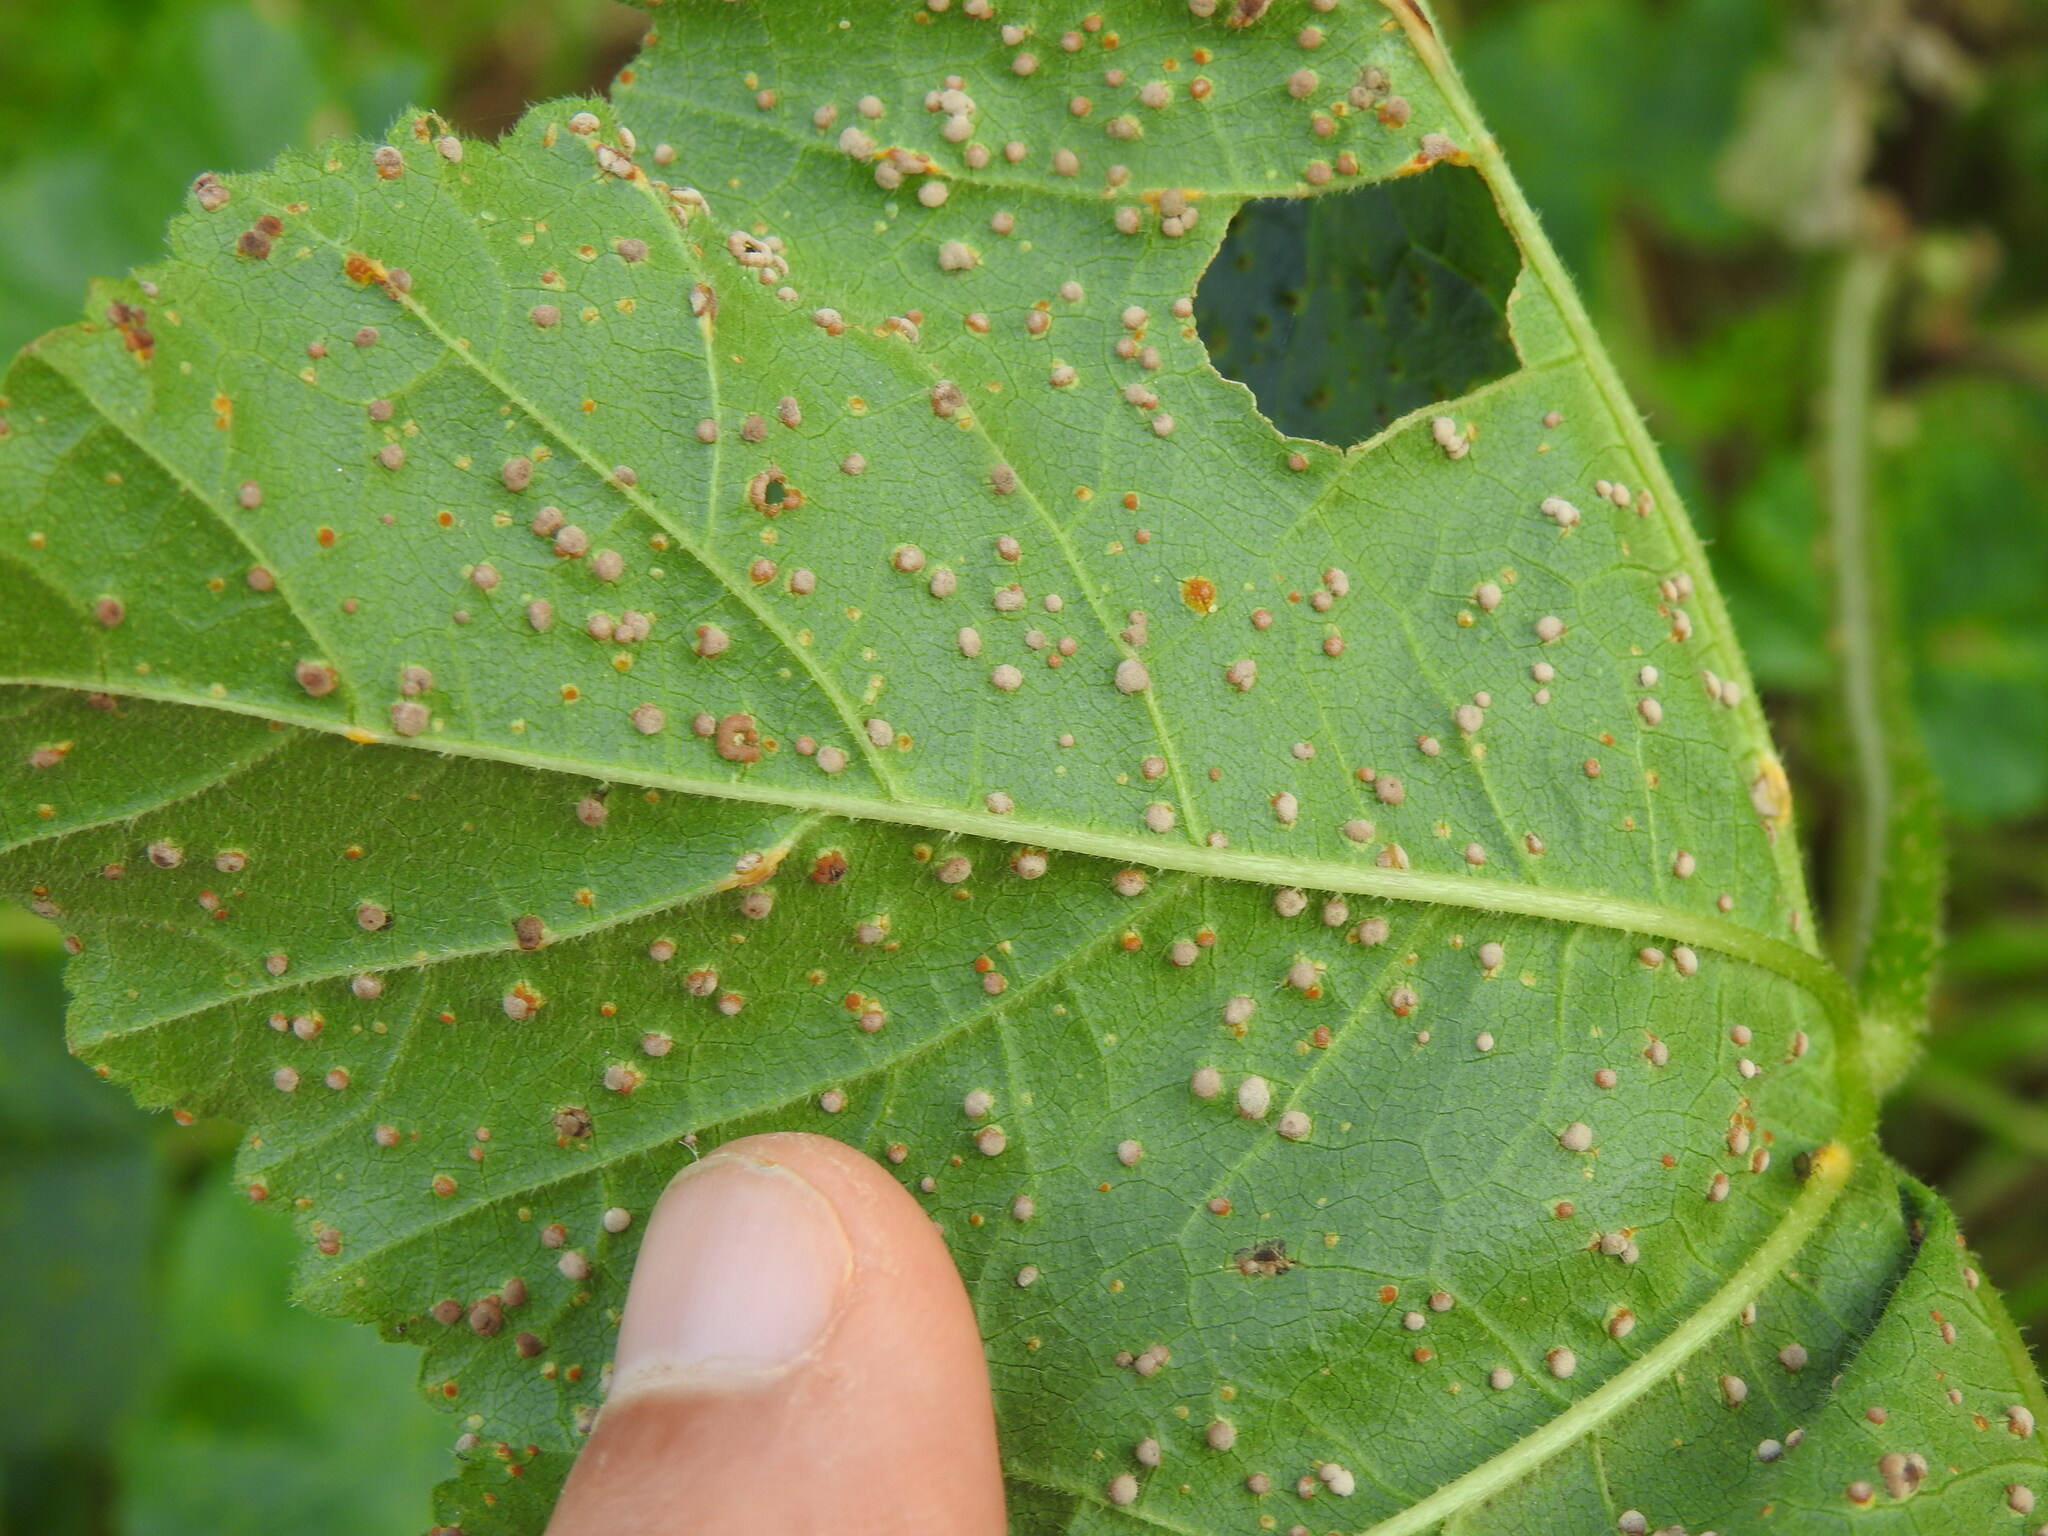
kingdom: Fungi
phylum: Basidiomycota
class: Pucciniomycetes
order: Pucciniales
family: Pucciniaceae
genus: Puccinia
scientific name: Puccinia malvacearum
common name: Hollyhock rust
